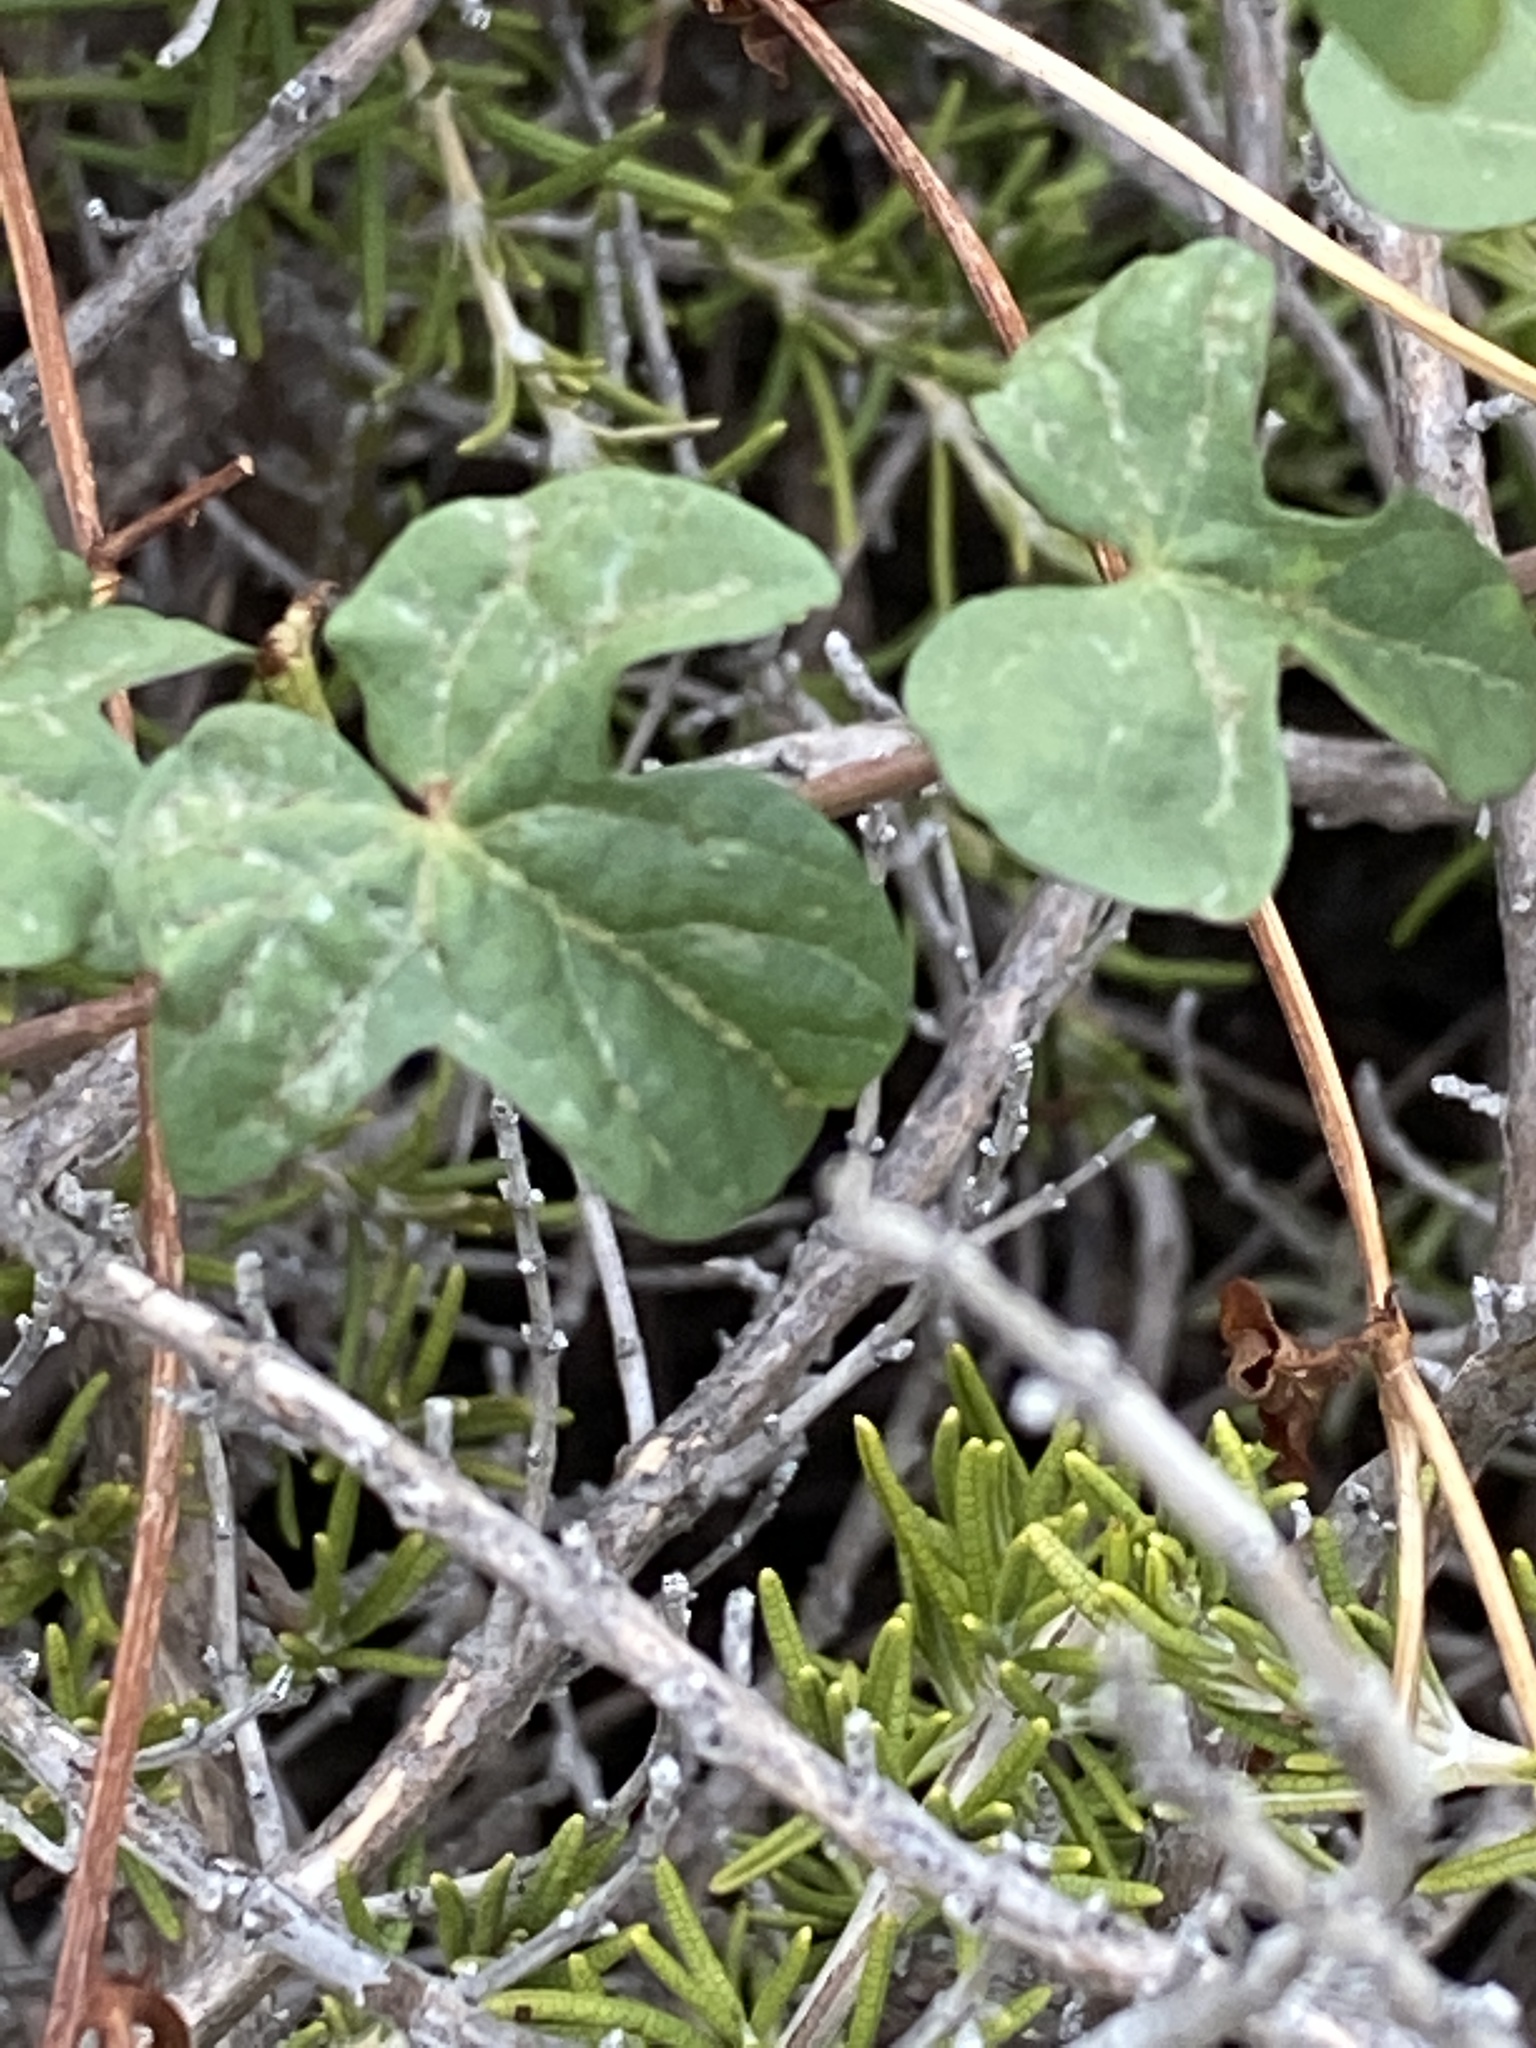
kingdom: Plantae
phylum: Tracheophyta
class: Magnoliopsida
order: Solanales
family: Convolvulaceae
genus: Ipomoea
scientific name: Ipomoea cordatotriloba
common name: Cotton morning glory
